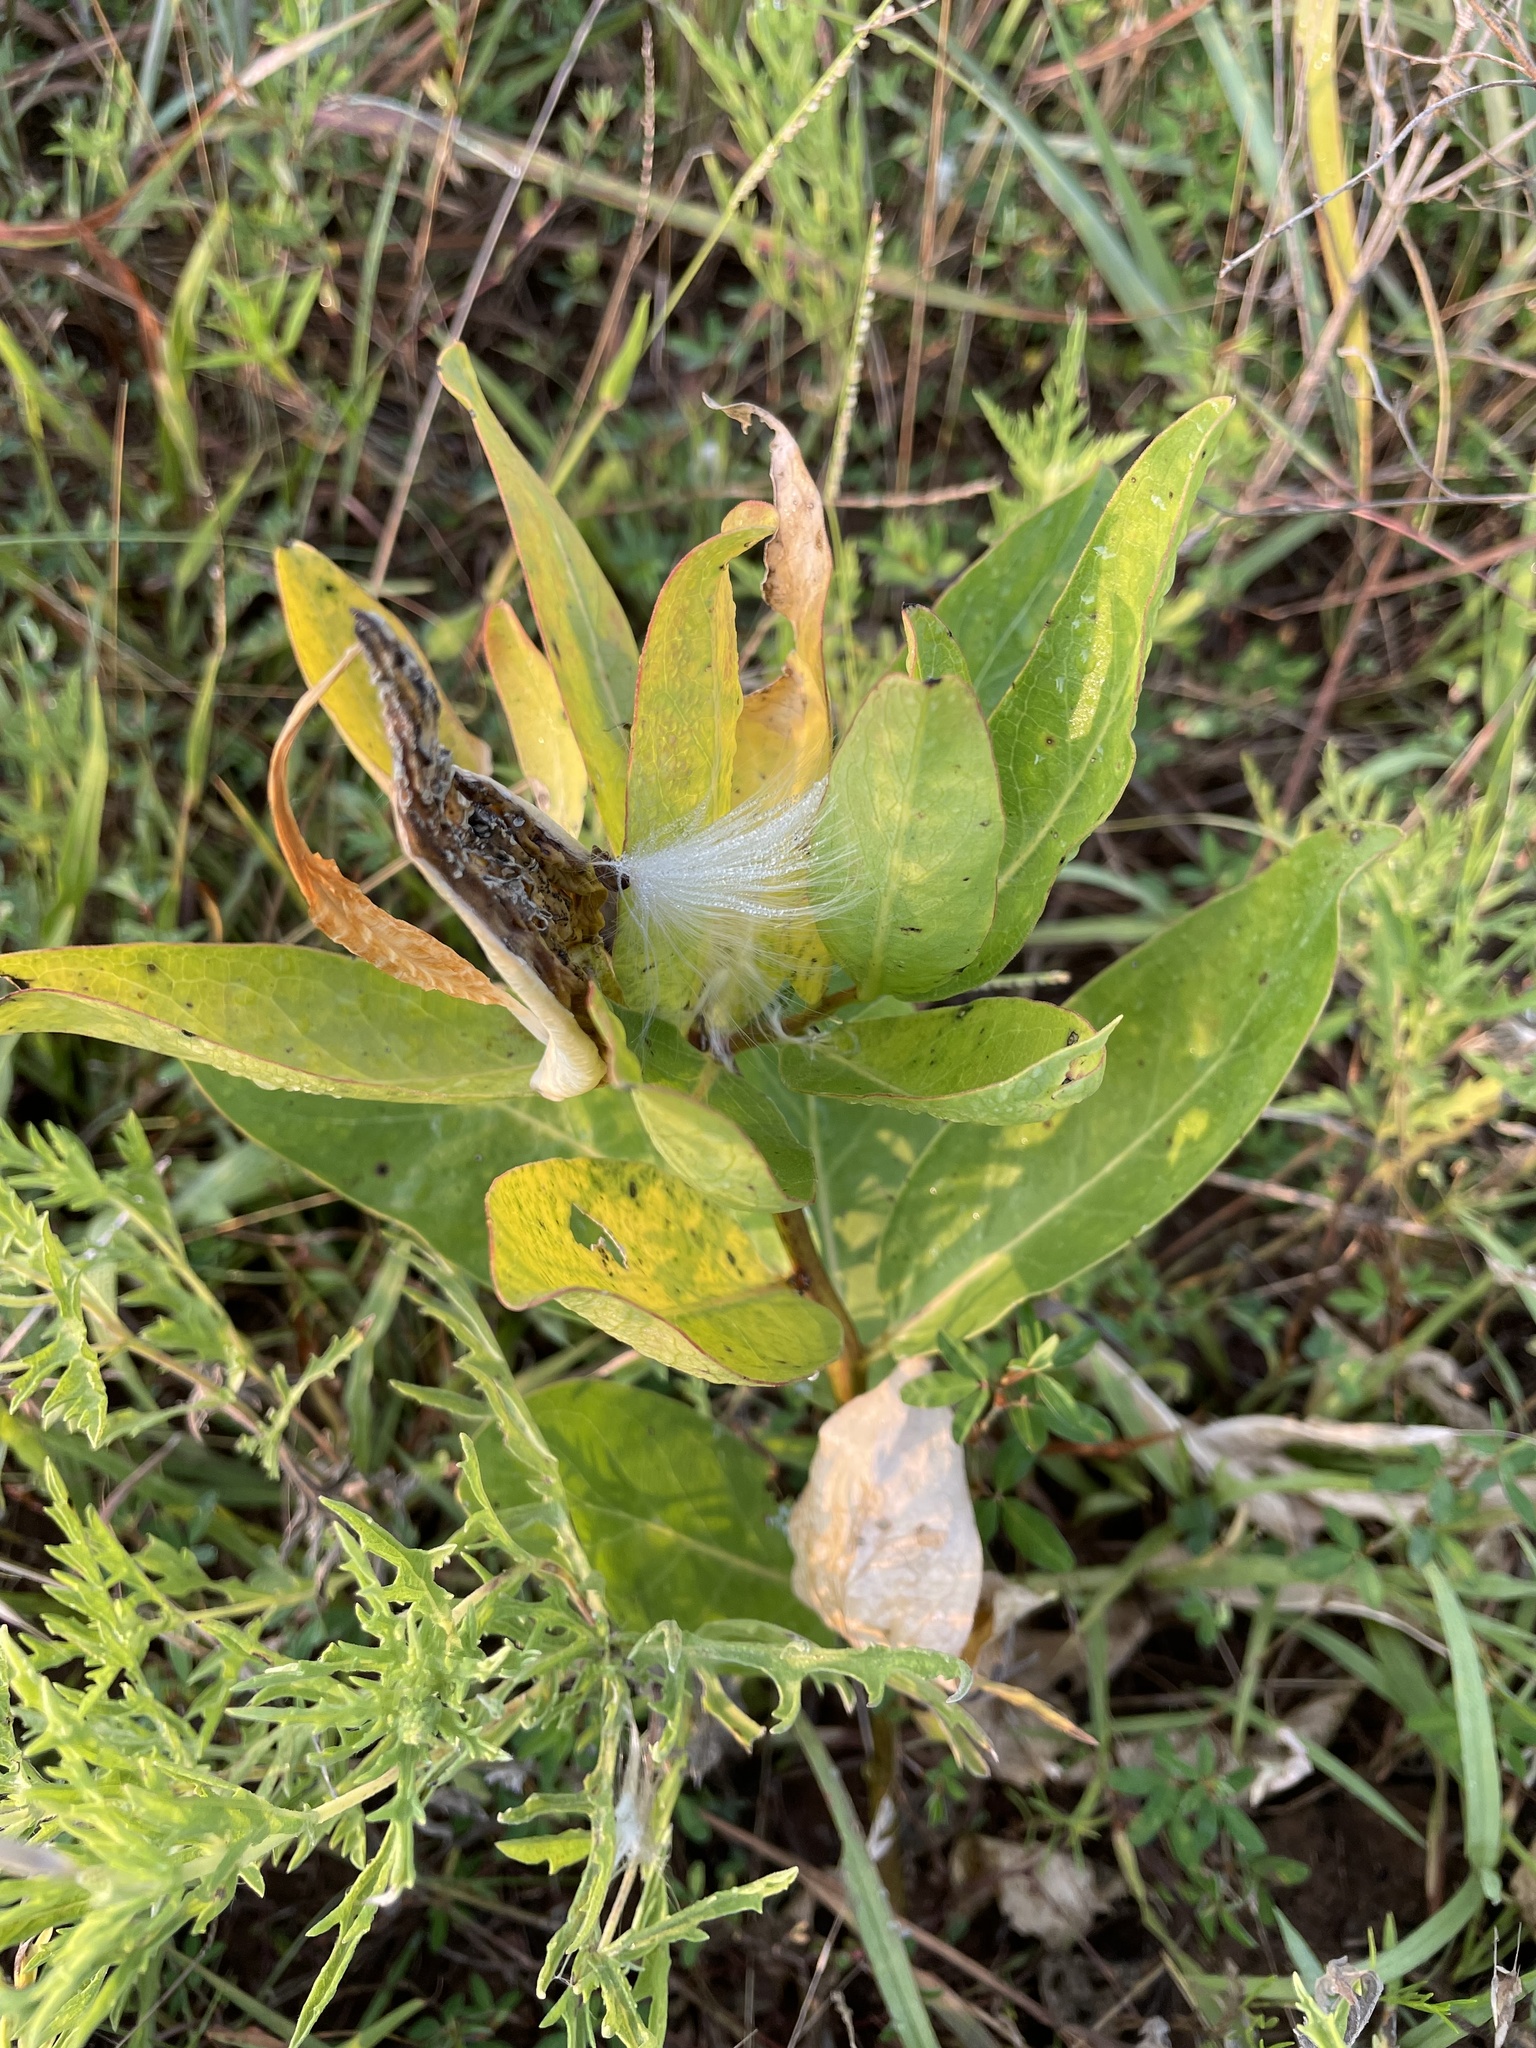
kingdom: Plantae
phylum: Tracheophyta
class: Magnoliopsida
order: Gentianales
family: Apocynaceae
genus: Asclepias
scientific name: Asclepias viridis
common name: Antelope-horns
